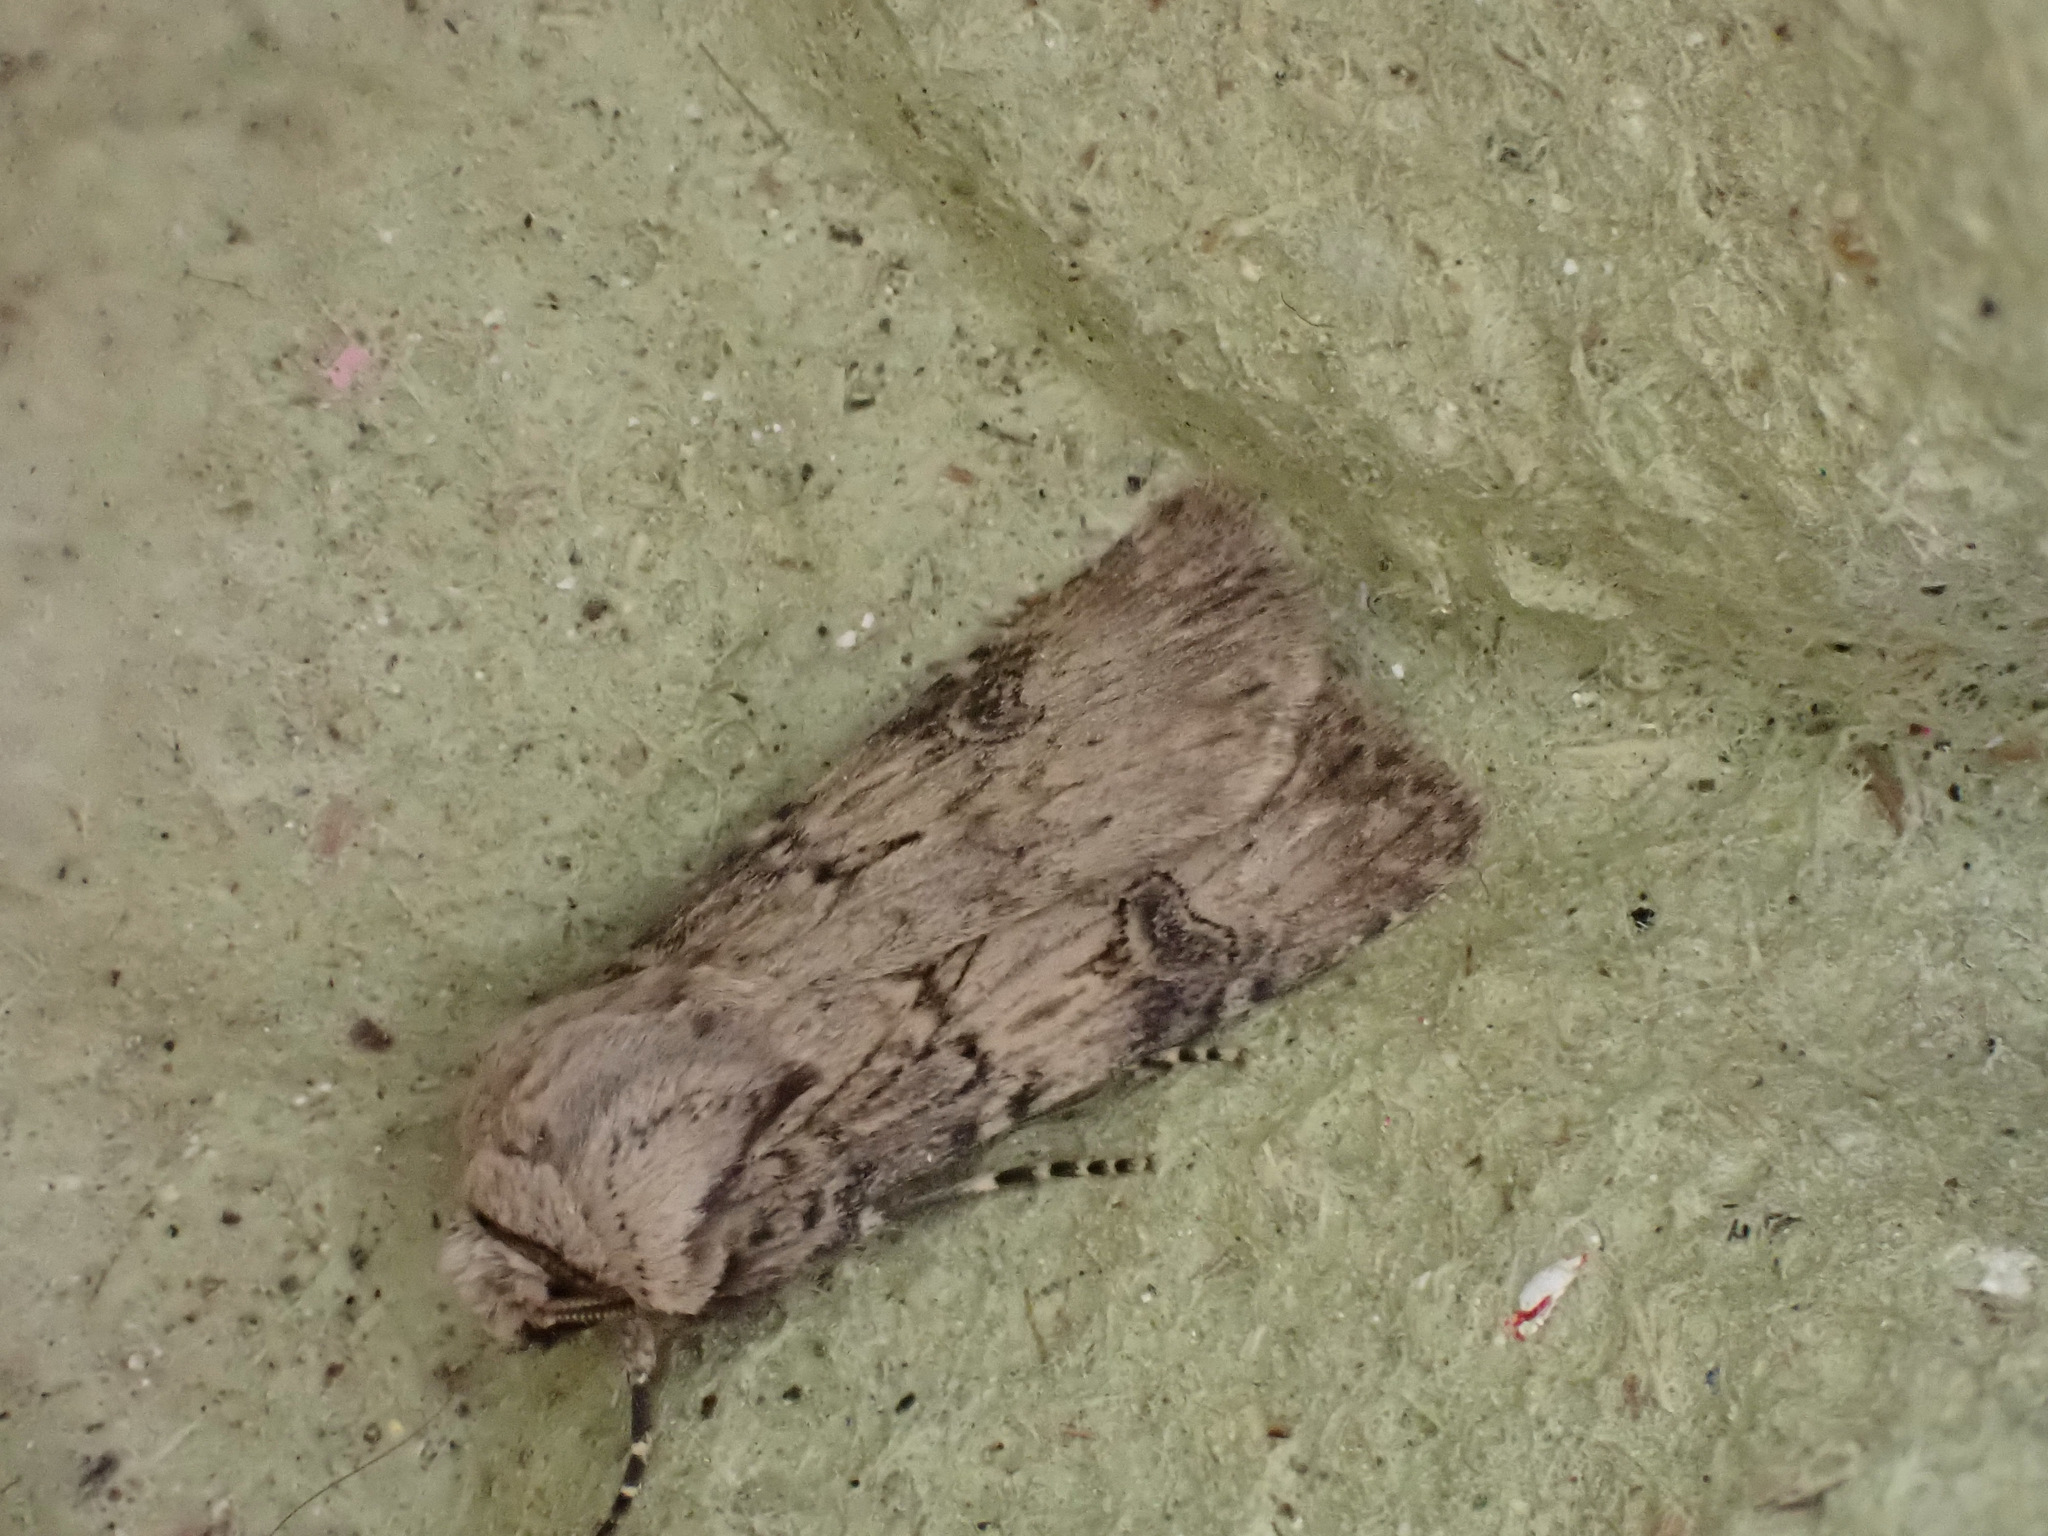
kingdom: Animalia
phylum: Arthropoda
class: Insecta
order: Lepidoptera
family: Noctuidae
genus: Agrotis
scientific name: Agrotis puta
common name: Shuttle-shaped dart
